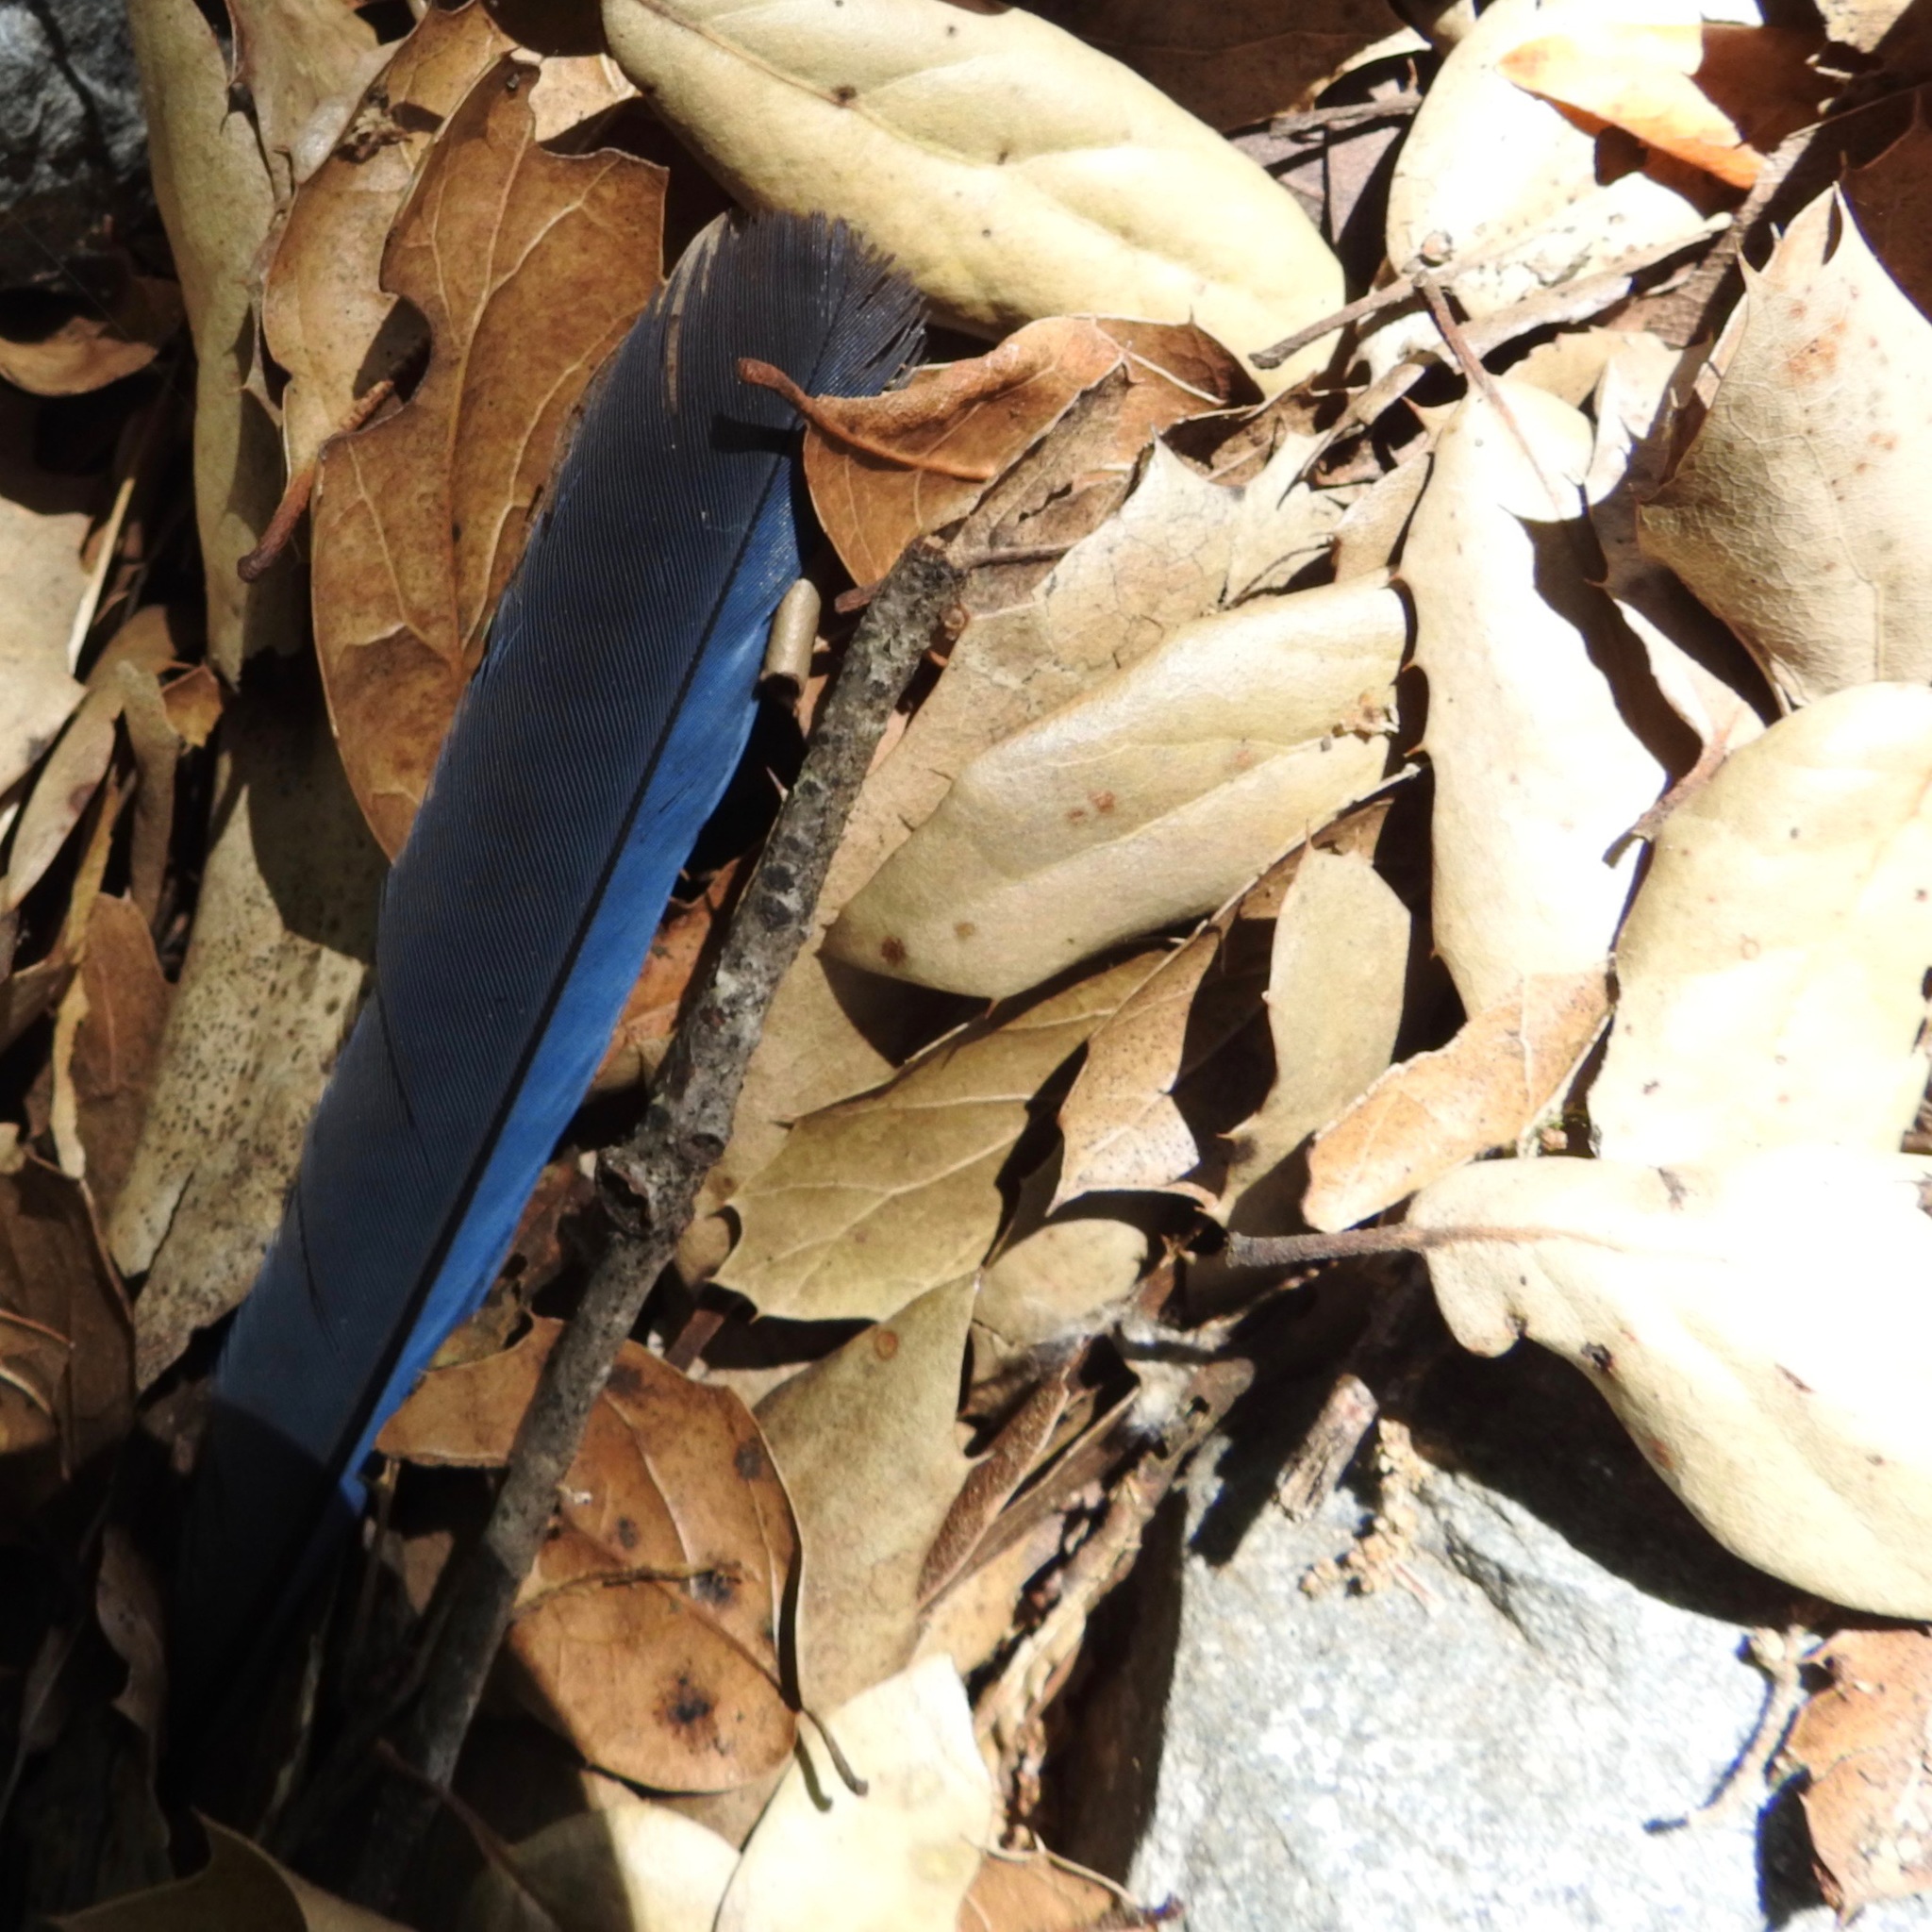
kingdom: Animalia
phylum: Chordata
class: Aves
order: Passeriformes
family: Corvidae
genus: Cyanocitta
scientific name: Cyanocitta stelleri
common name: Steller's jay
